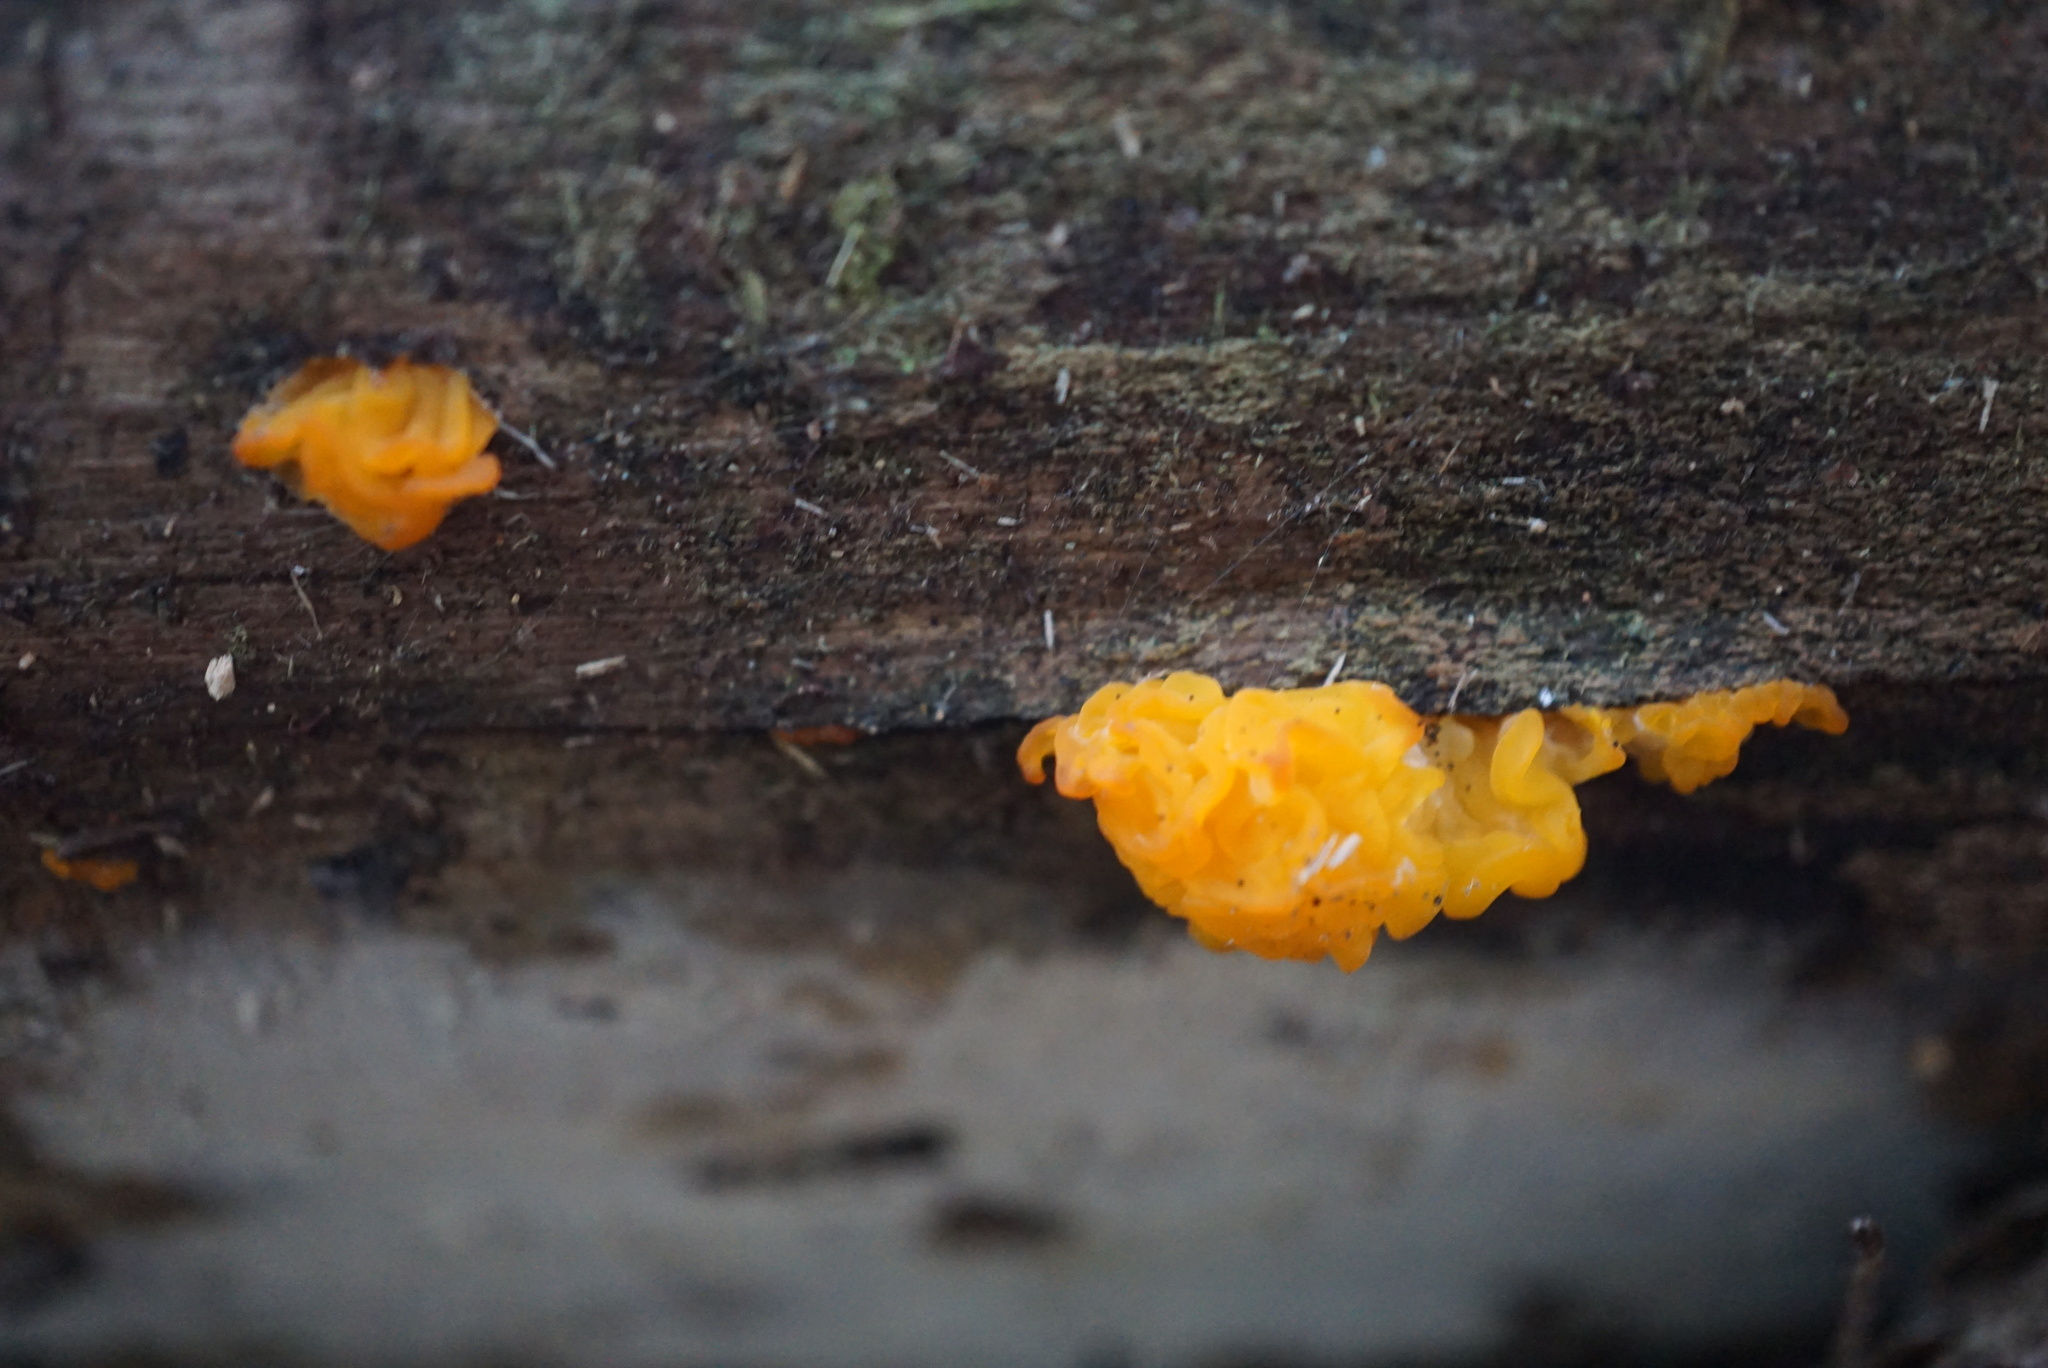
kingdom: Fungi
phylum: Basidiomycota
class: Tremellomycetes
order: Tremellales
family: Tremellaceae
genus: Tremella
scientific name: Tremella mesenterica
